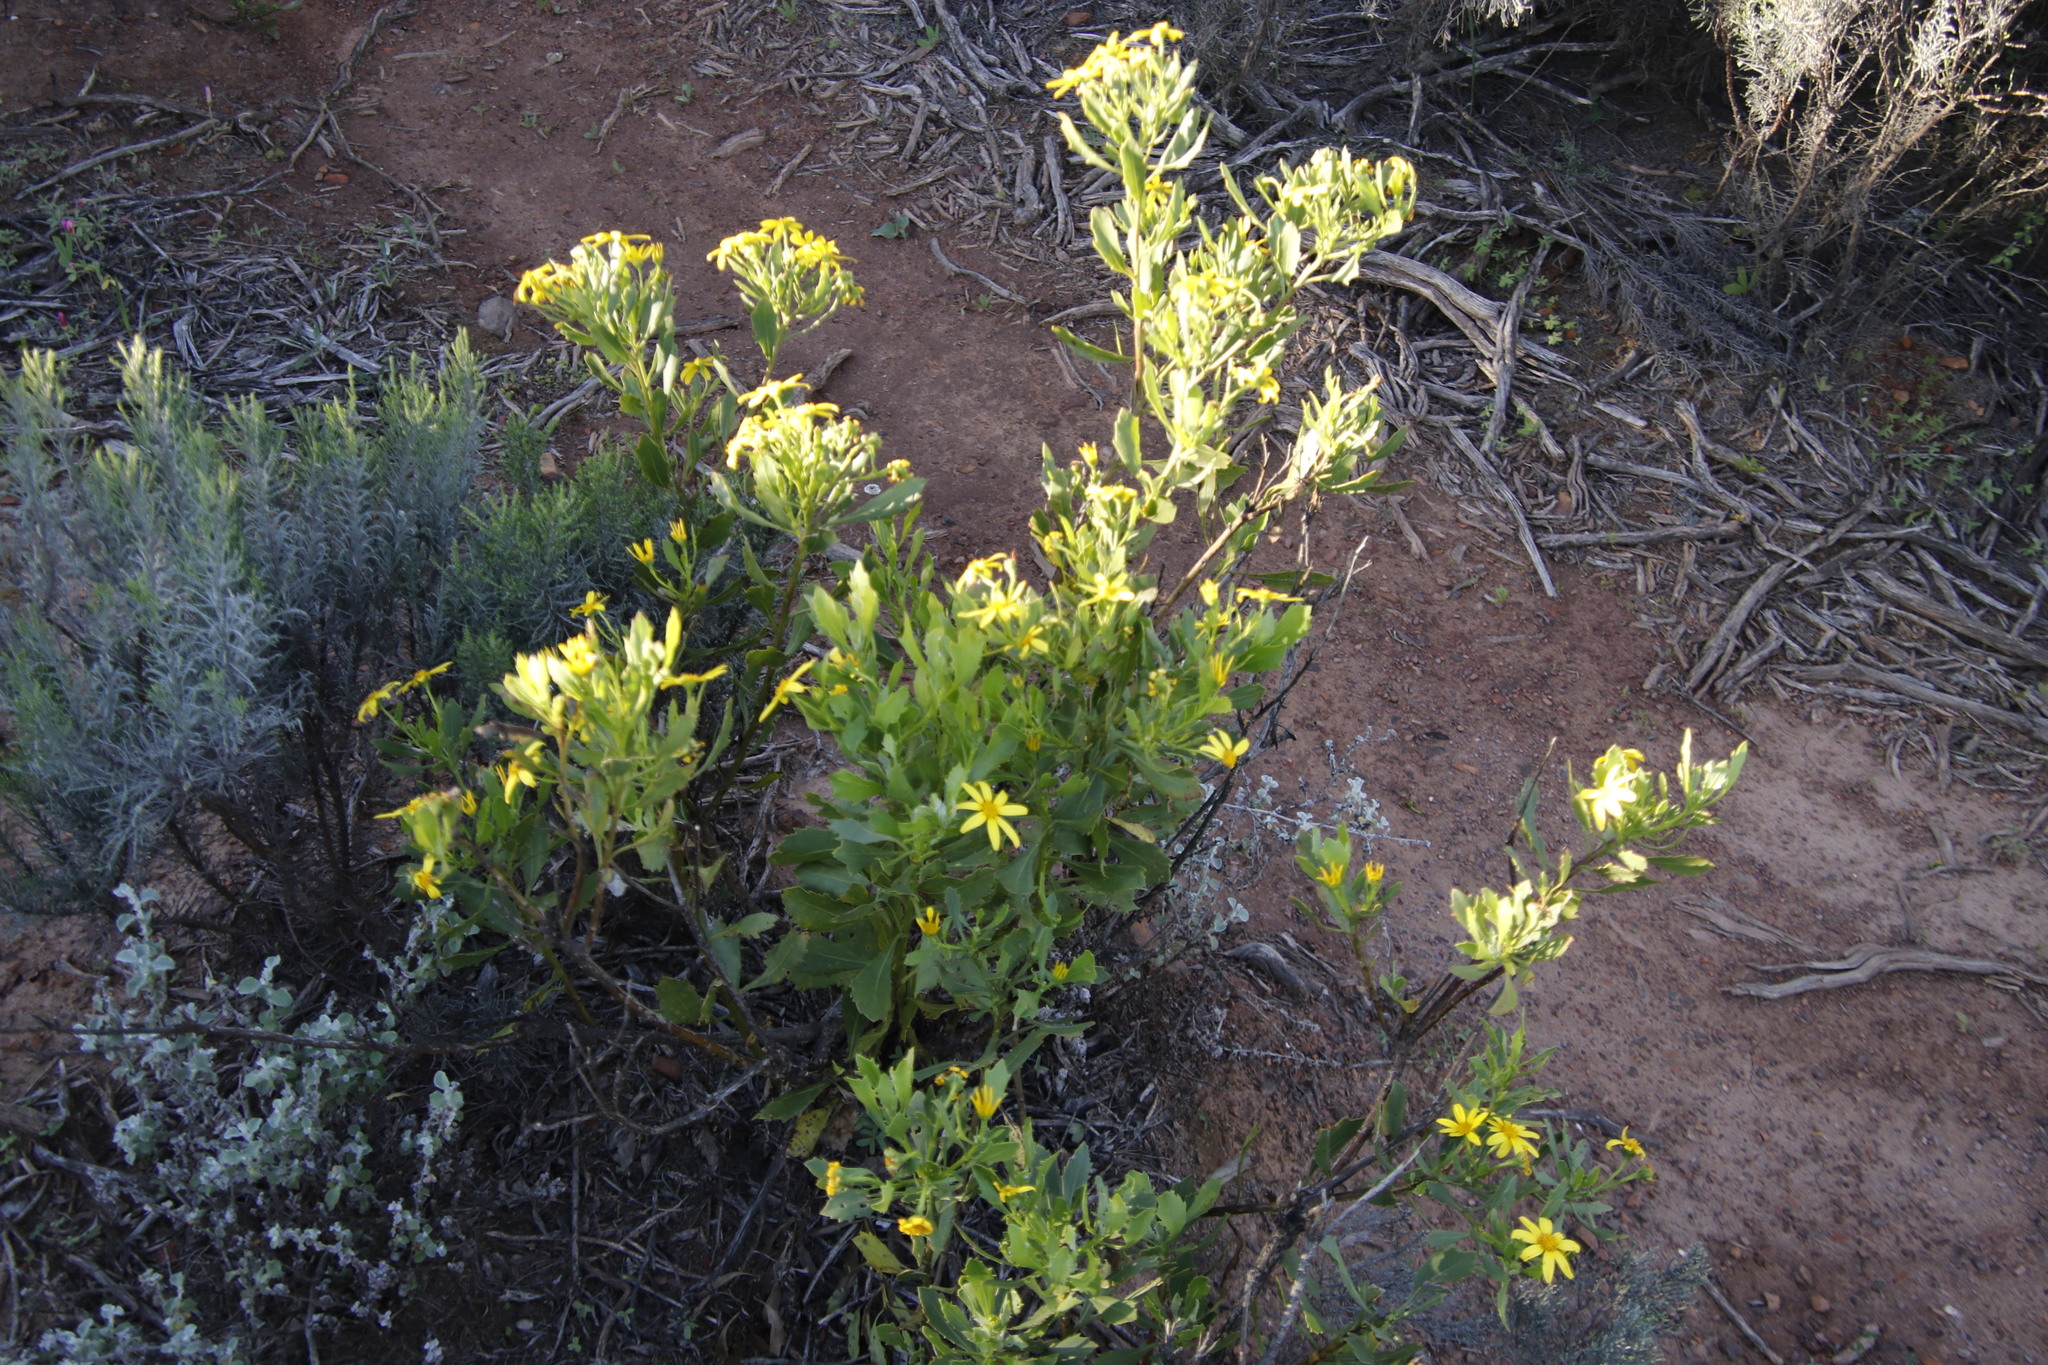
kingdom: Plantae
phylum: Tracheophyta
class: Magnoliopsida
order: Asterales
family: Asteraceae
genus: Osteospermum
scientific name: Osteospermum moniliferum
